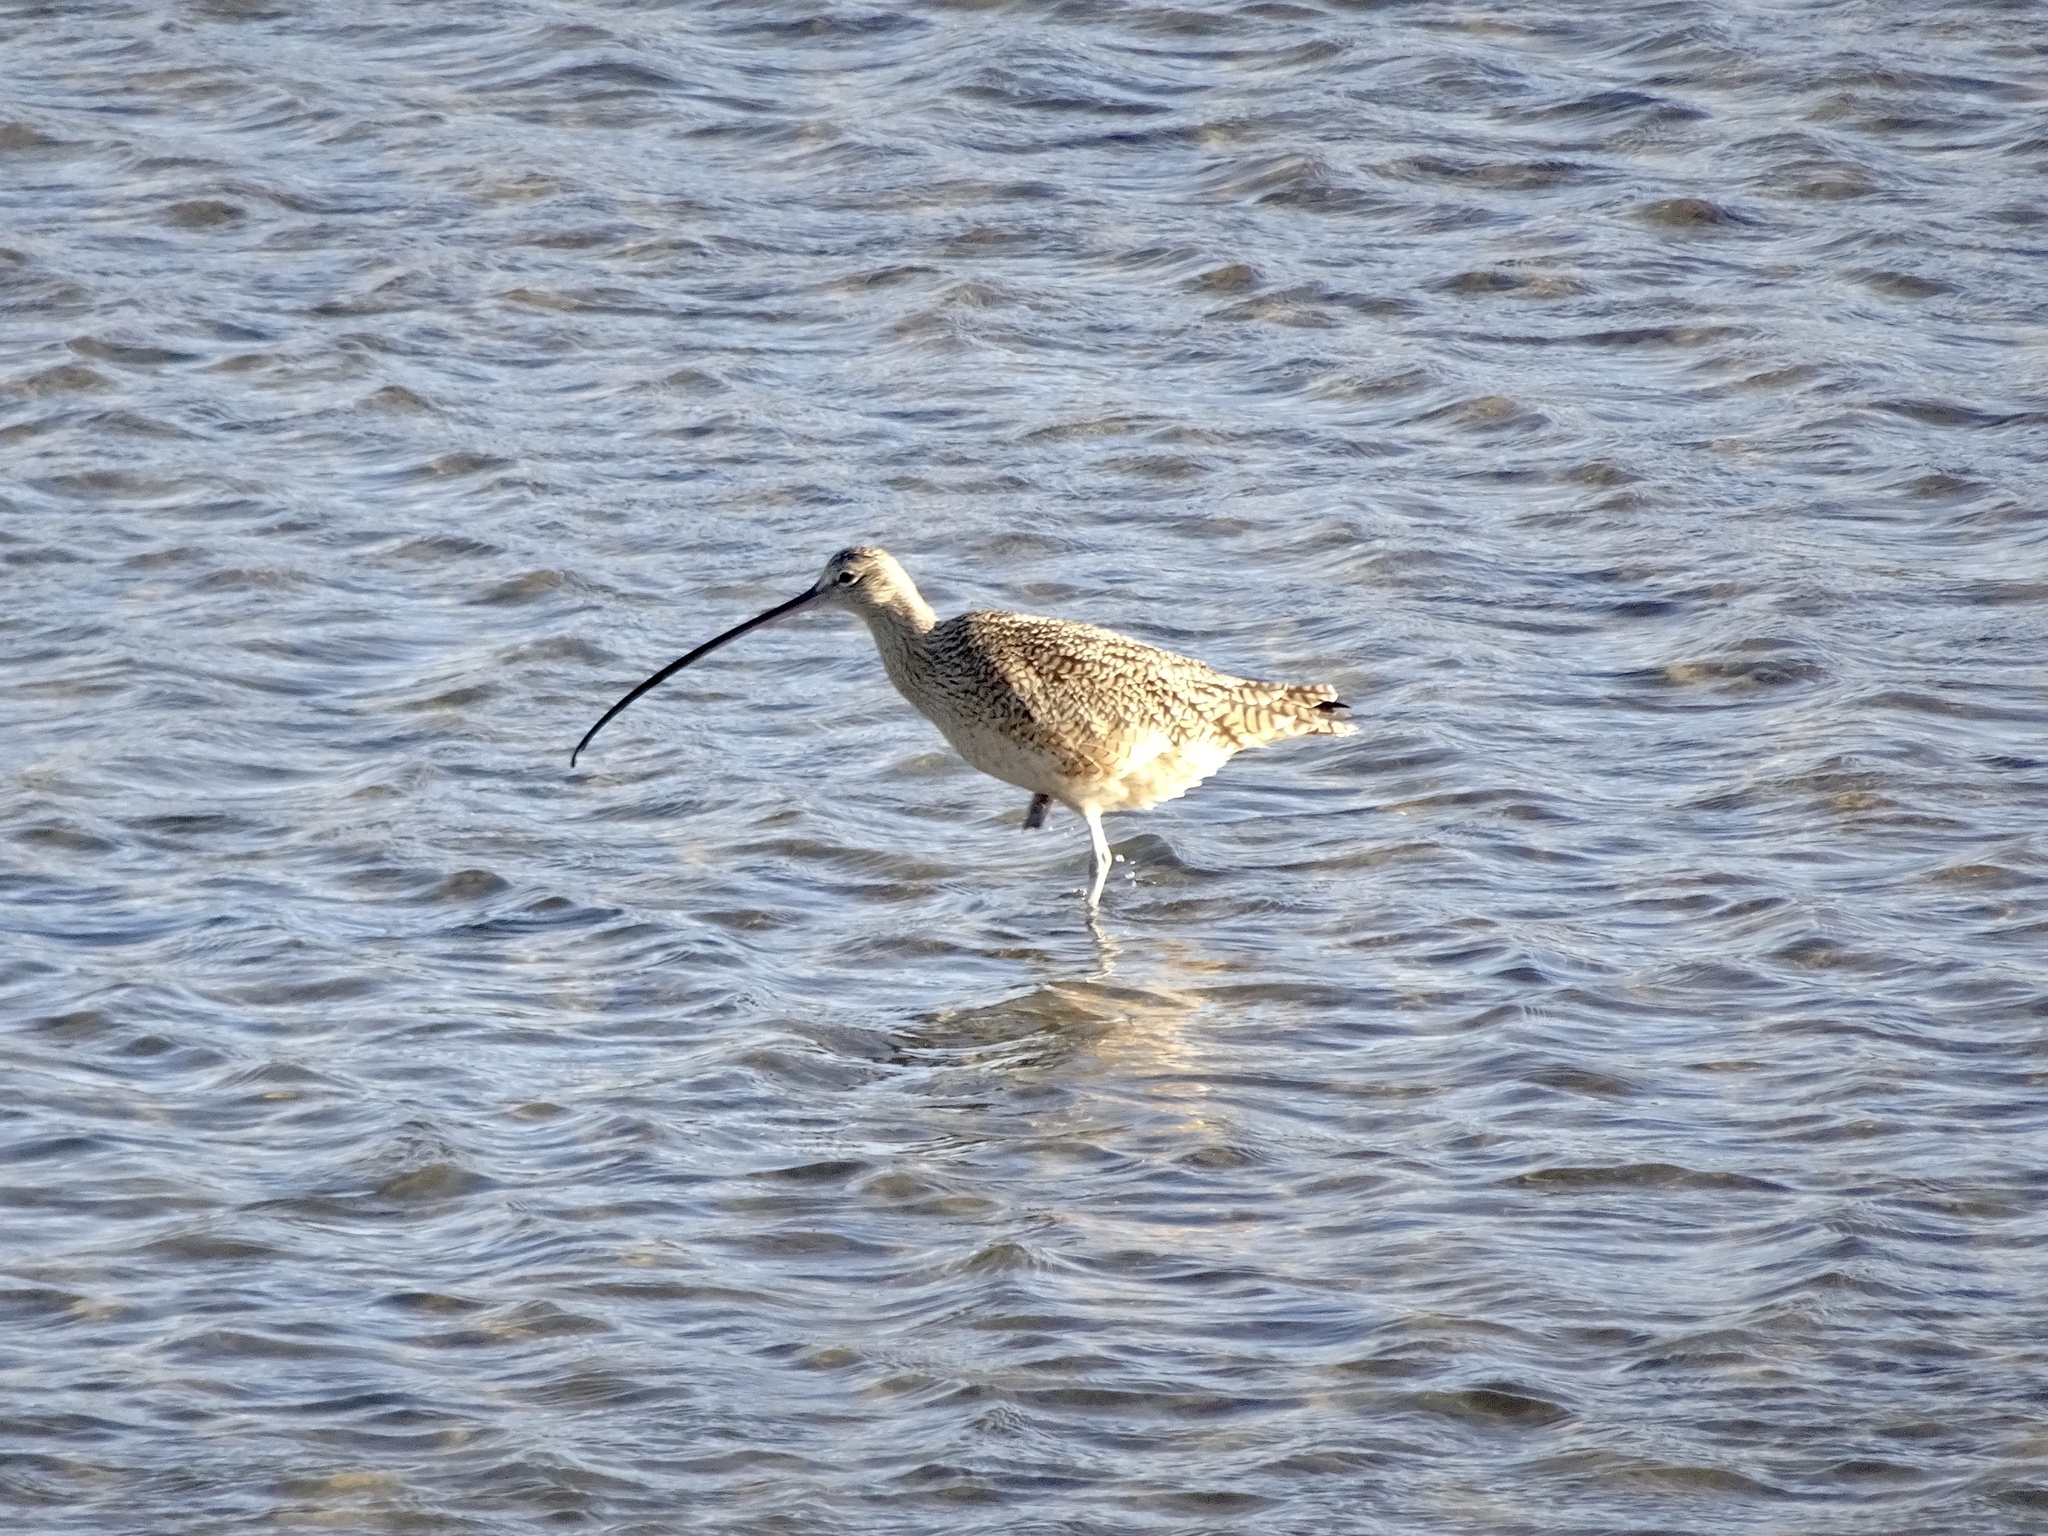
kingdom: Animalia
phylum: Chordata
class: Aves
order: Charadriiformes
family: Scolopacidae
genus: Numenius
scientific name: Numenius americanus
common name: Long-billed curlew
